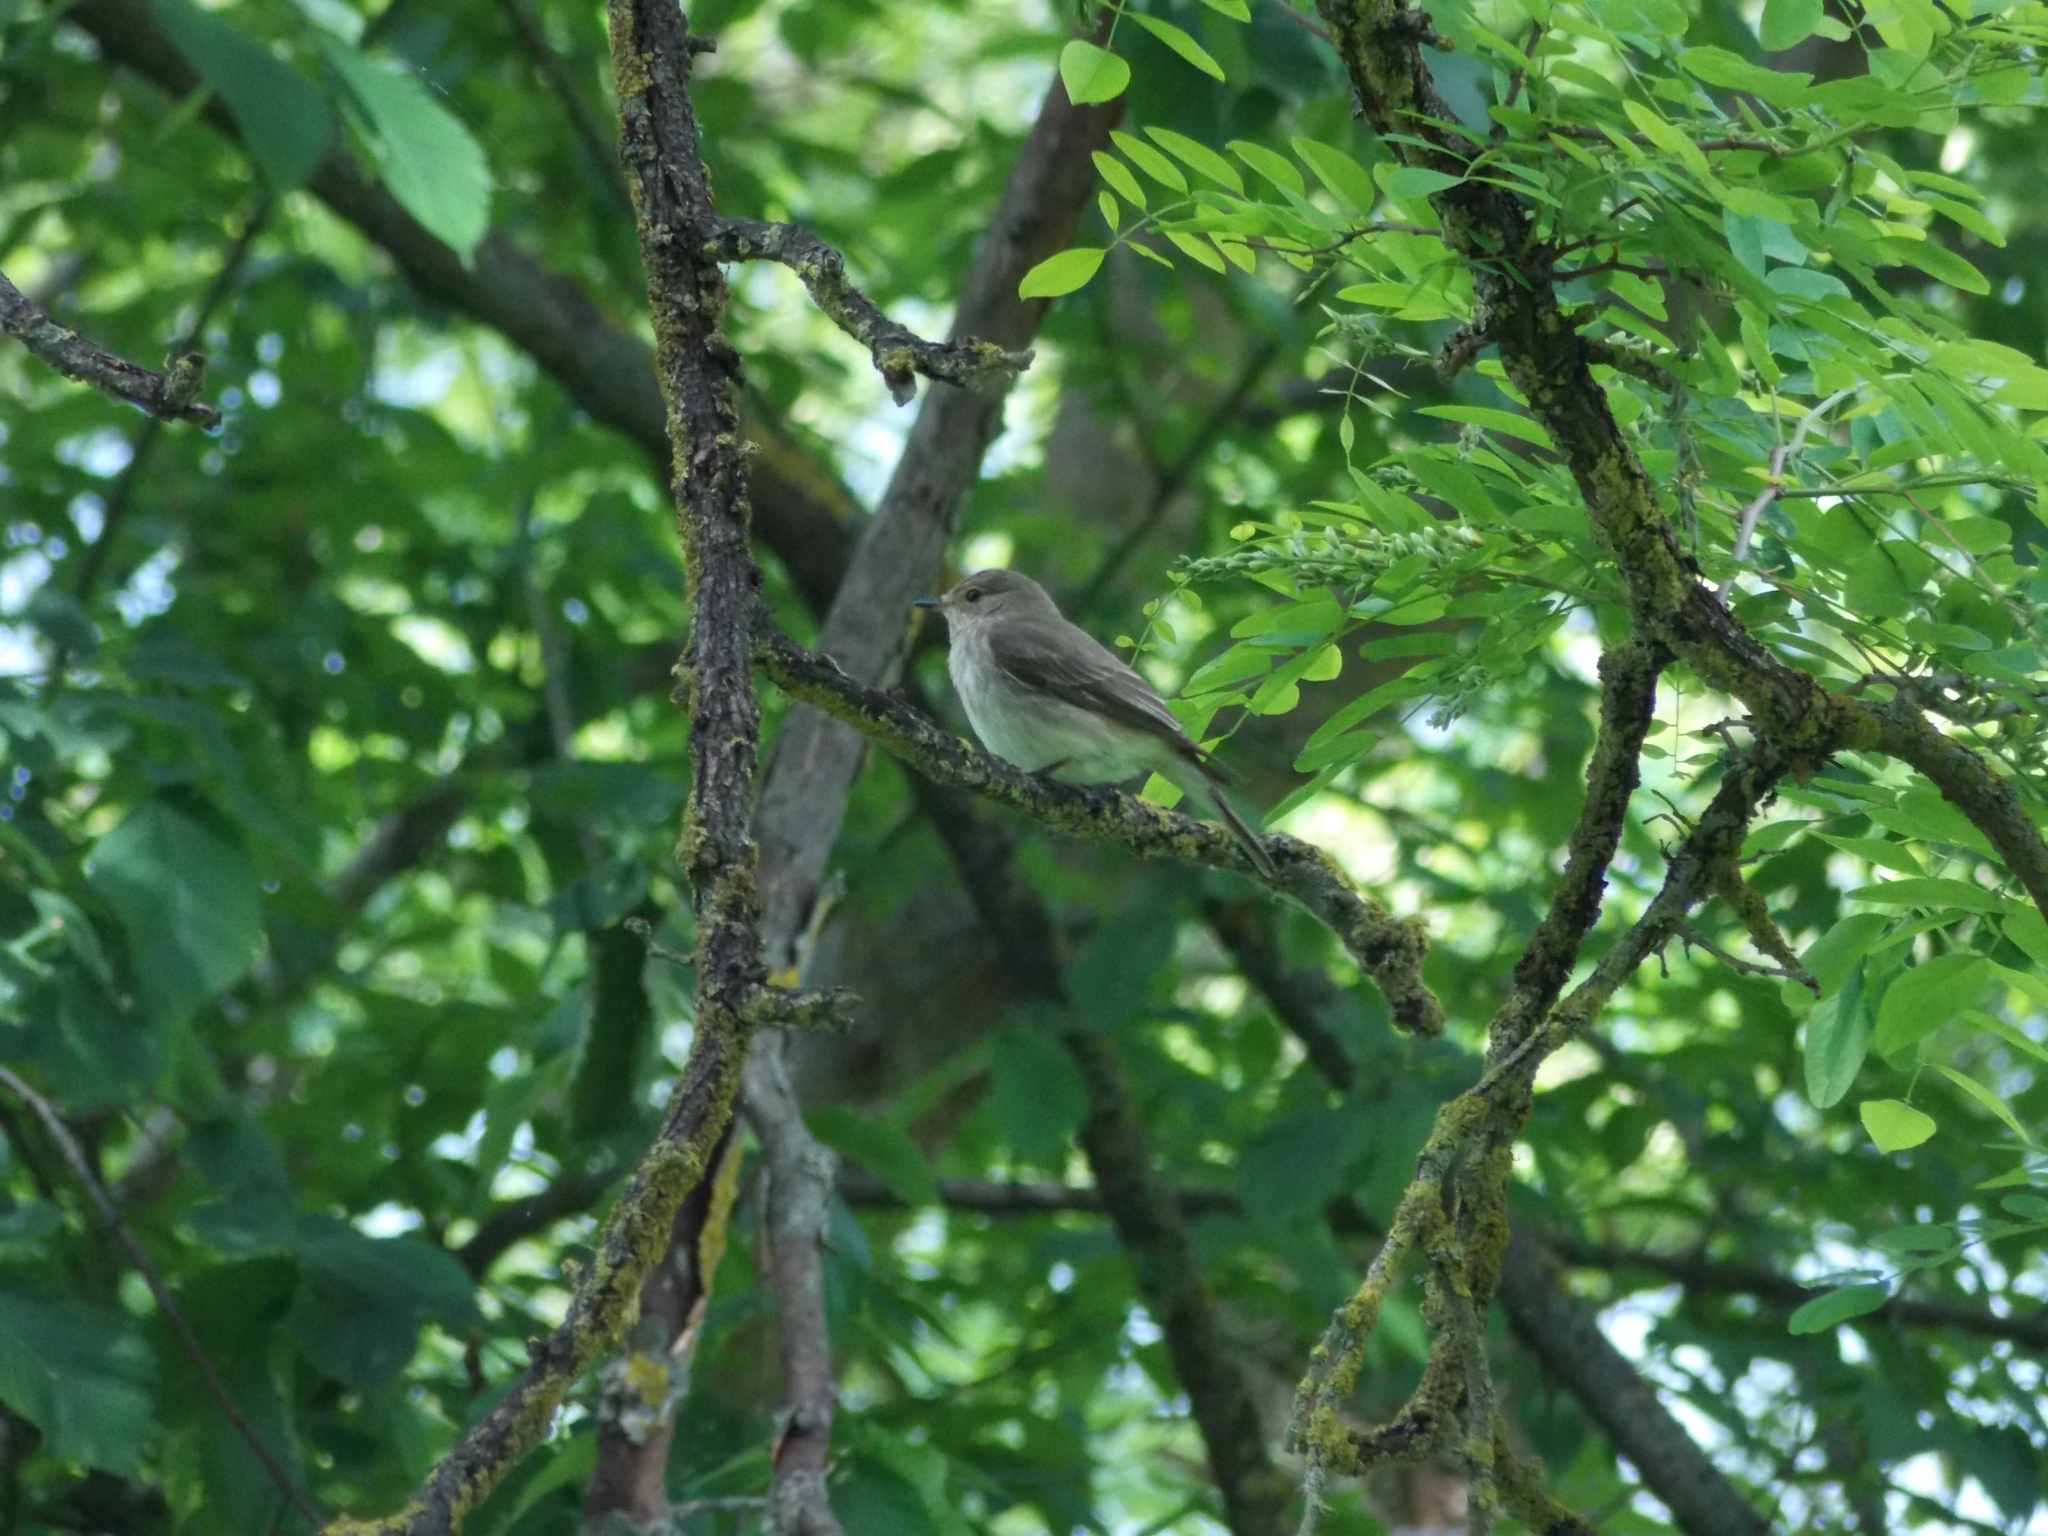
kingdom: Animalia
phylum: Chordata
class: Aves
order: Passeriformes
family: Muscicapidae
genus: Muscicapa
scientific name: Muscicapa striata
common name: Spotted flycatcher
